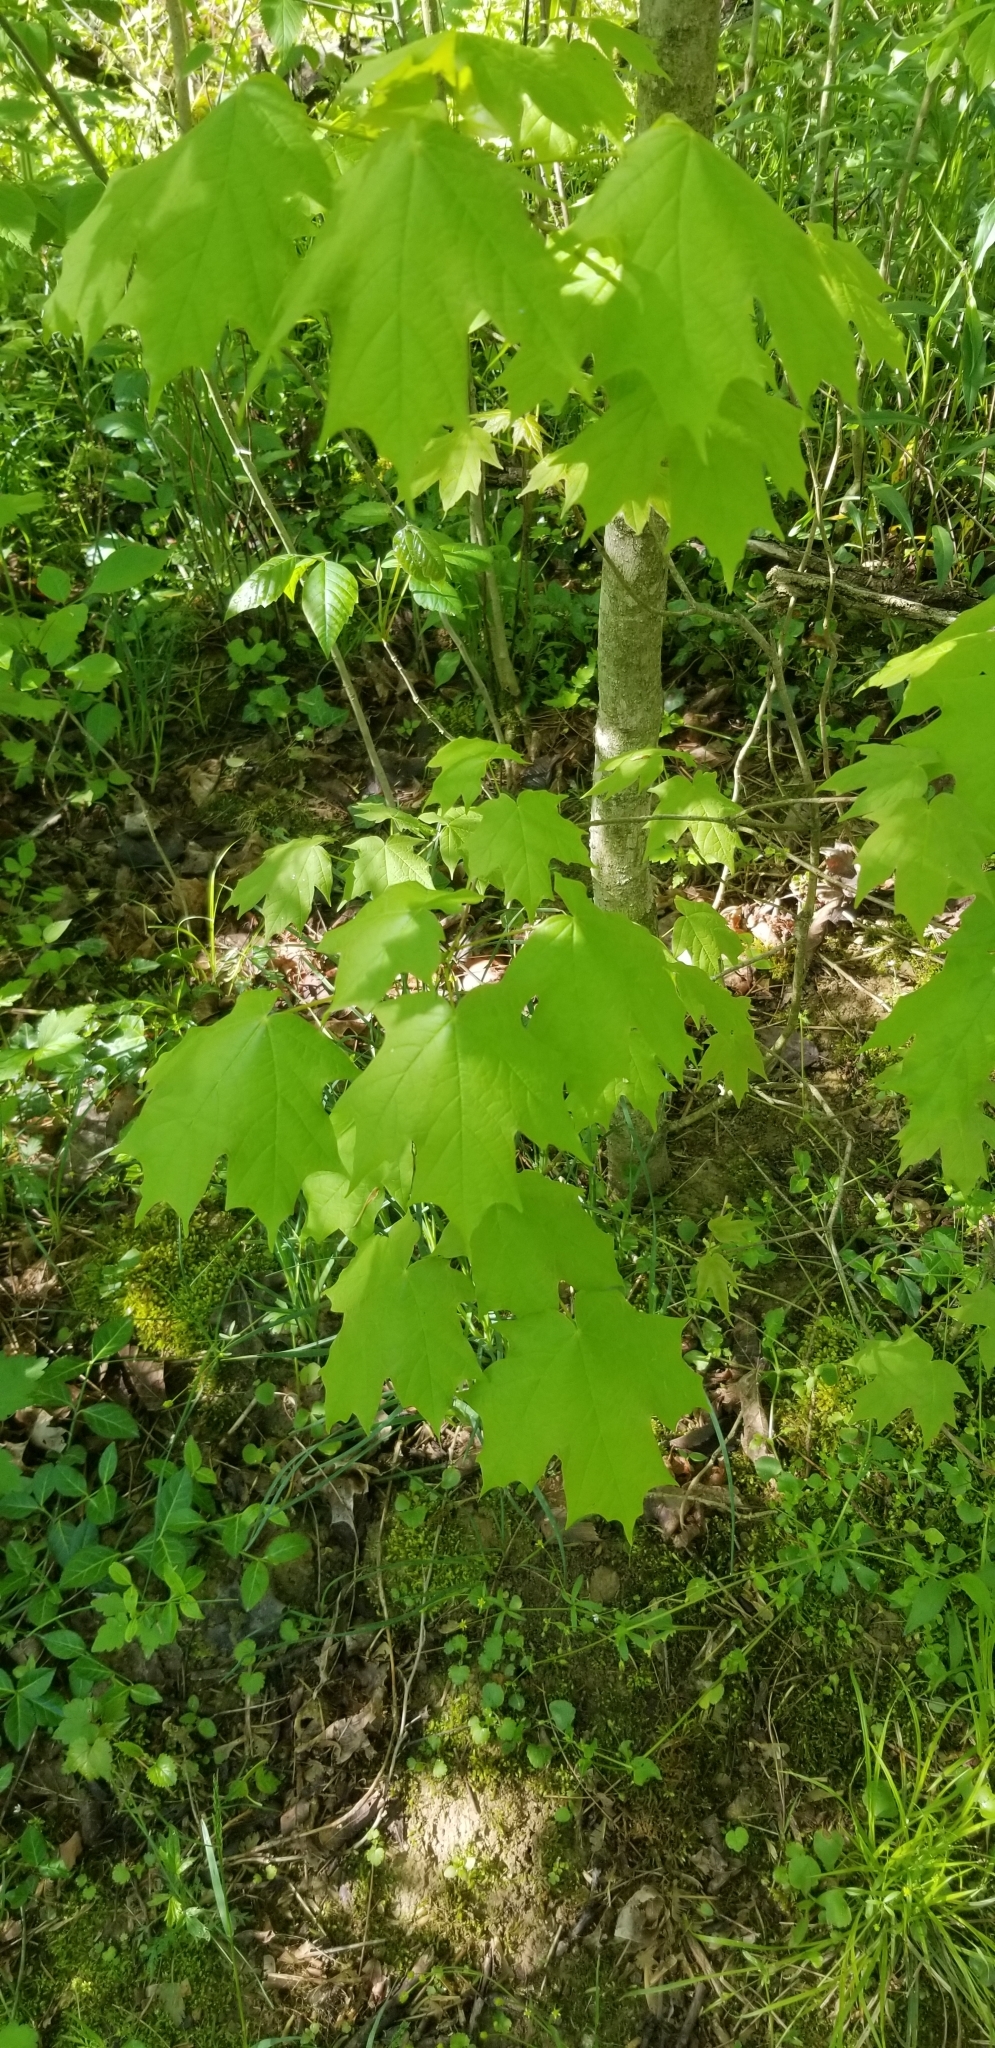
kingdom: Plantae
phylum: Tracheophyta
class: Magnoliopsida
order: Sapindales
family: Sapindaceae
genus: Acer
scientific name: Acer saccharum
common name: Sugar maple
